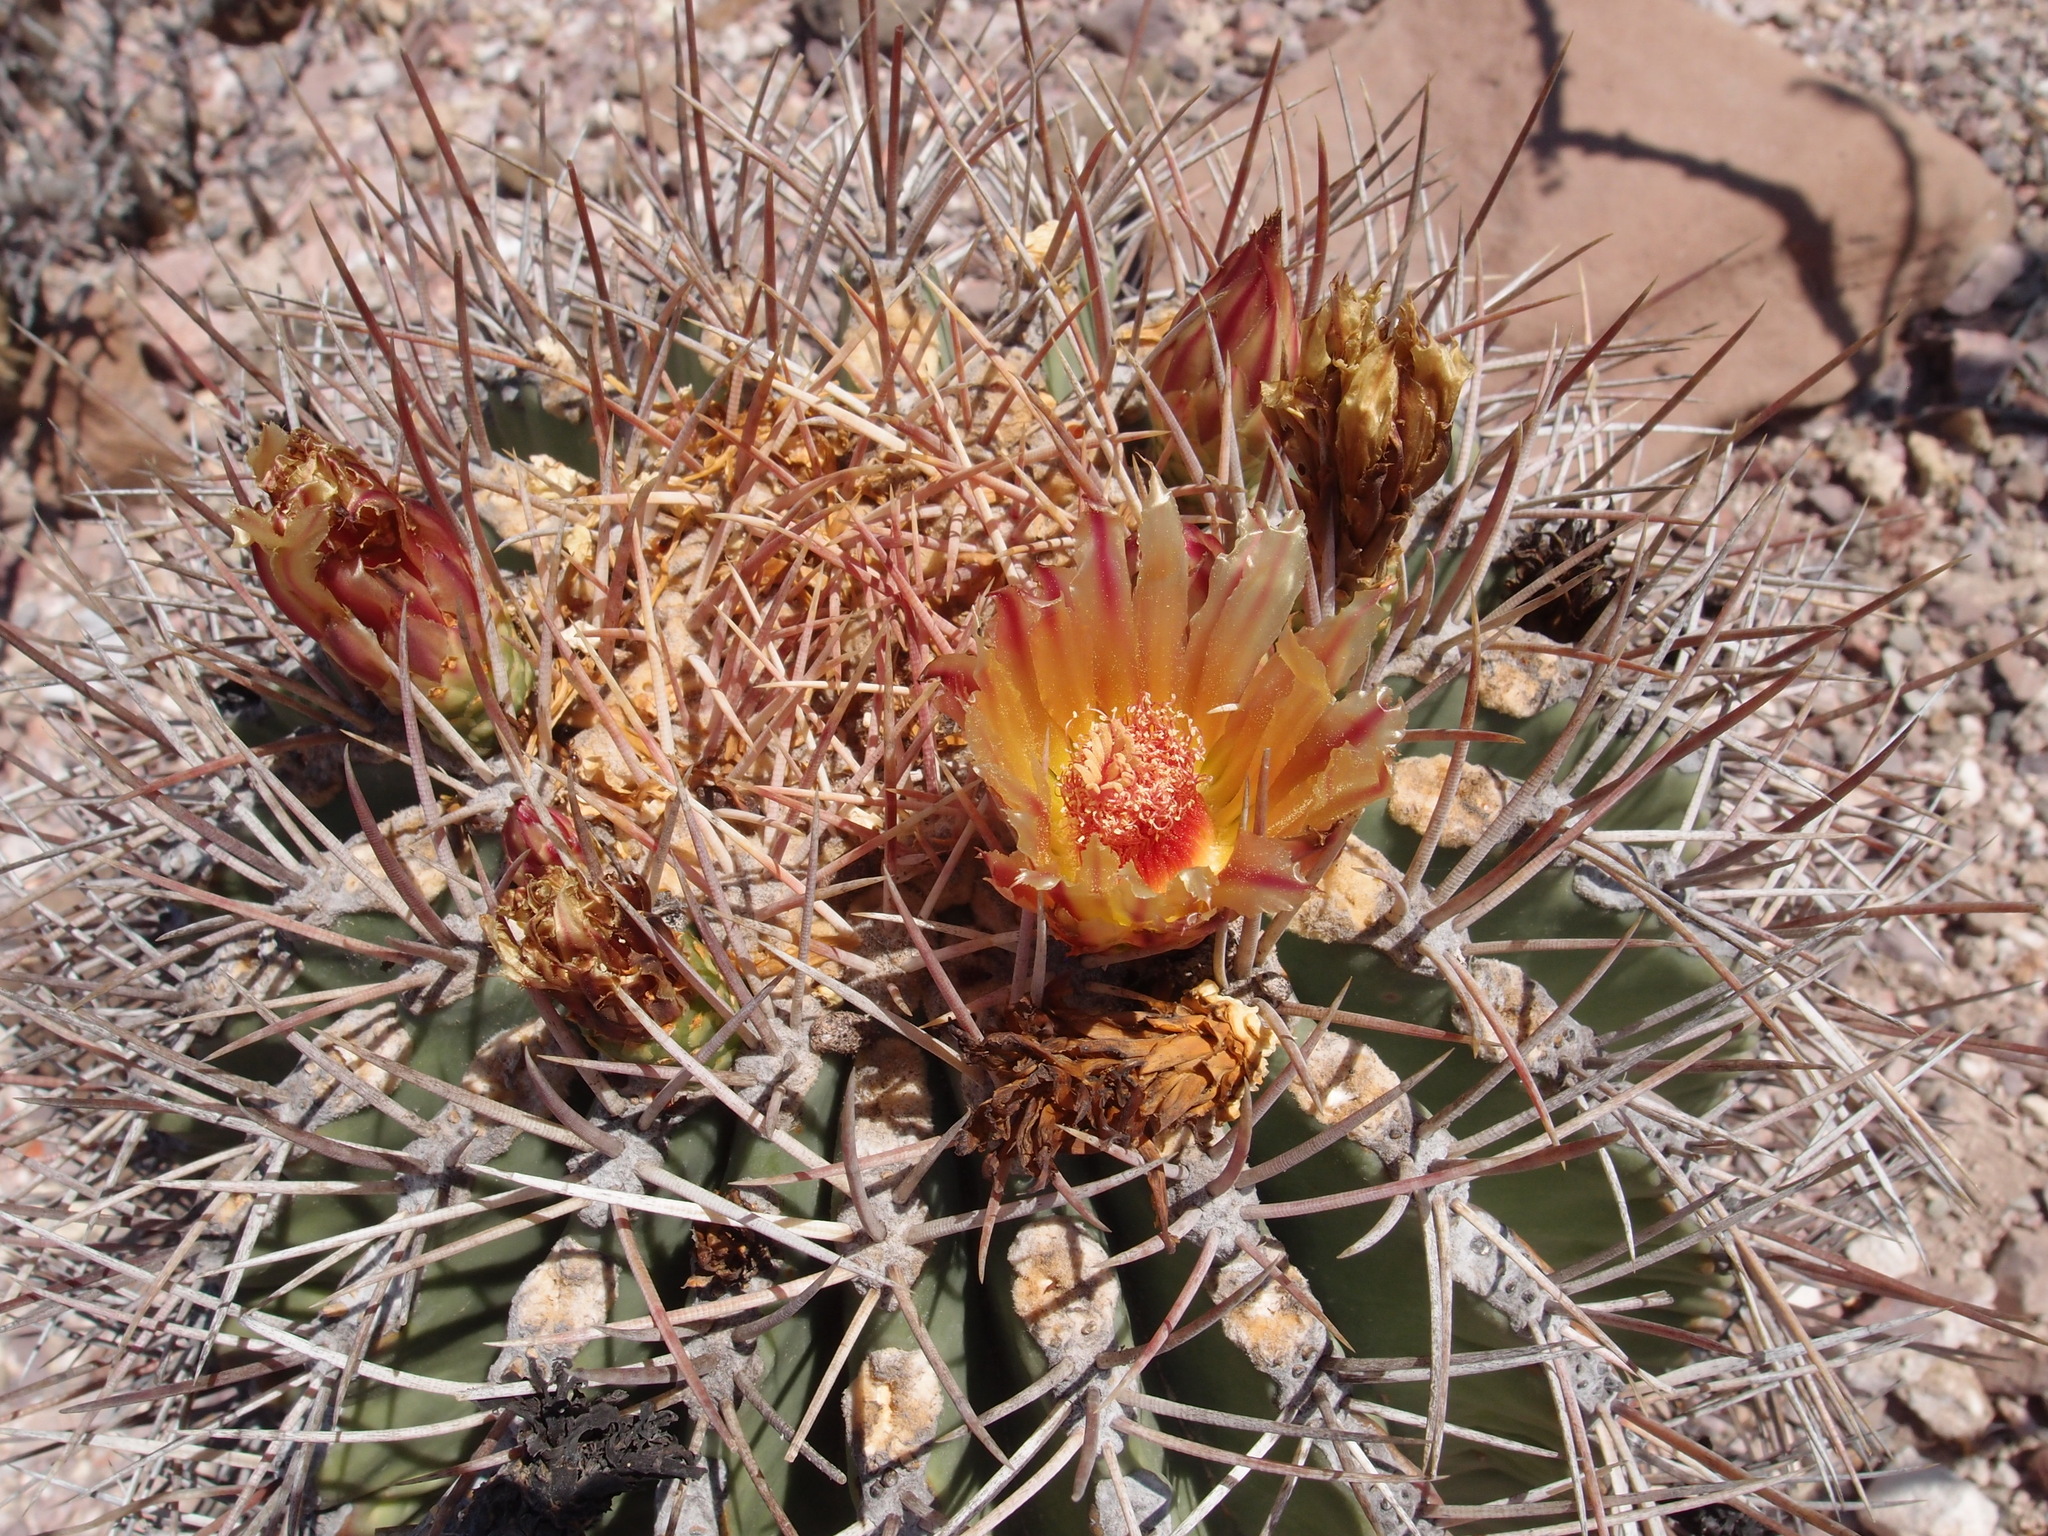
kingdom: Plantae
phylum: Tracheophyta
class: Magnoliopsida
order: Caryophyllales
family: Cactaceae
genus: Ferocactus
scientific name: Ferocactus emoryi
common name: Emory's barrel cactus
